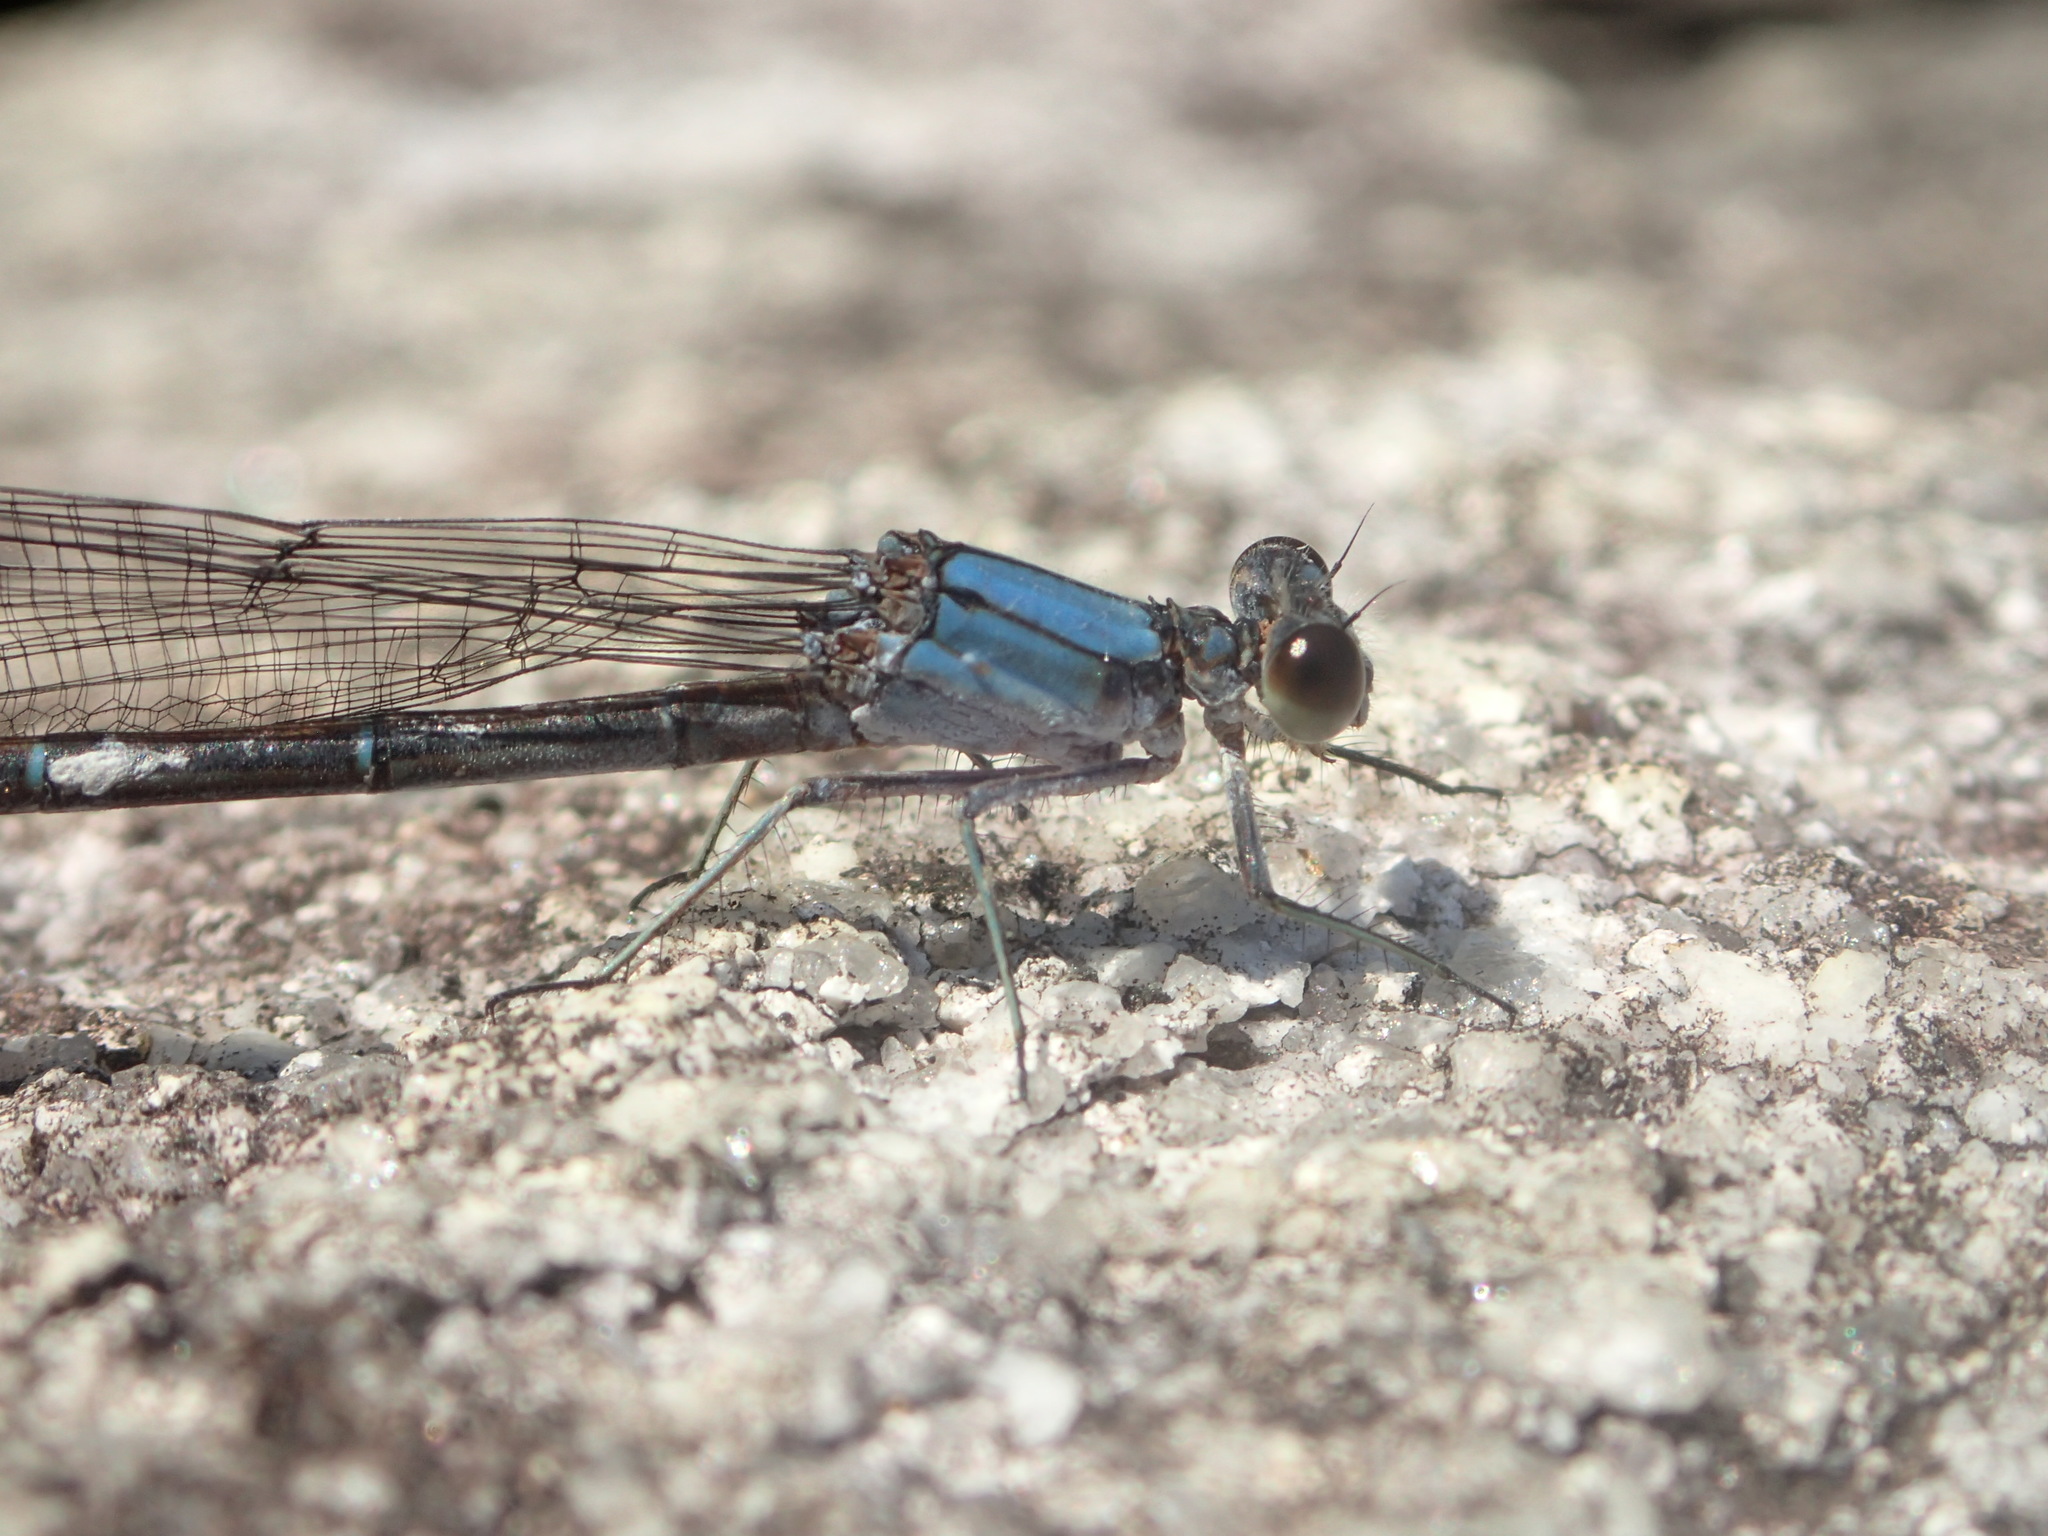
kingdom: Animalia
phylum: Arthropoda
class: Insecta
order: Odonata
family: Coenagrionidae
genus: Argia
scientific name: Argia moesta
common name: Powdered dancer
